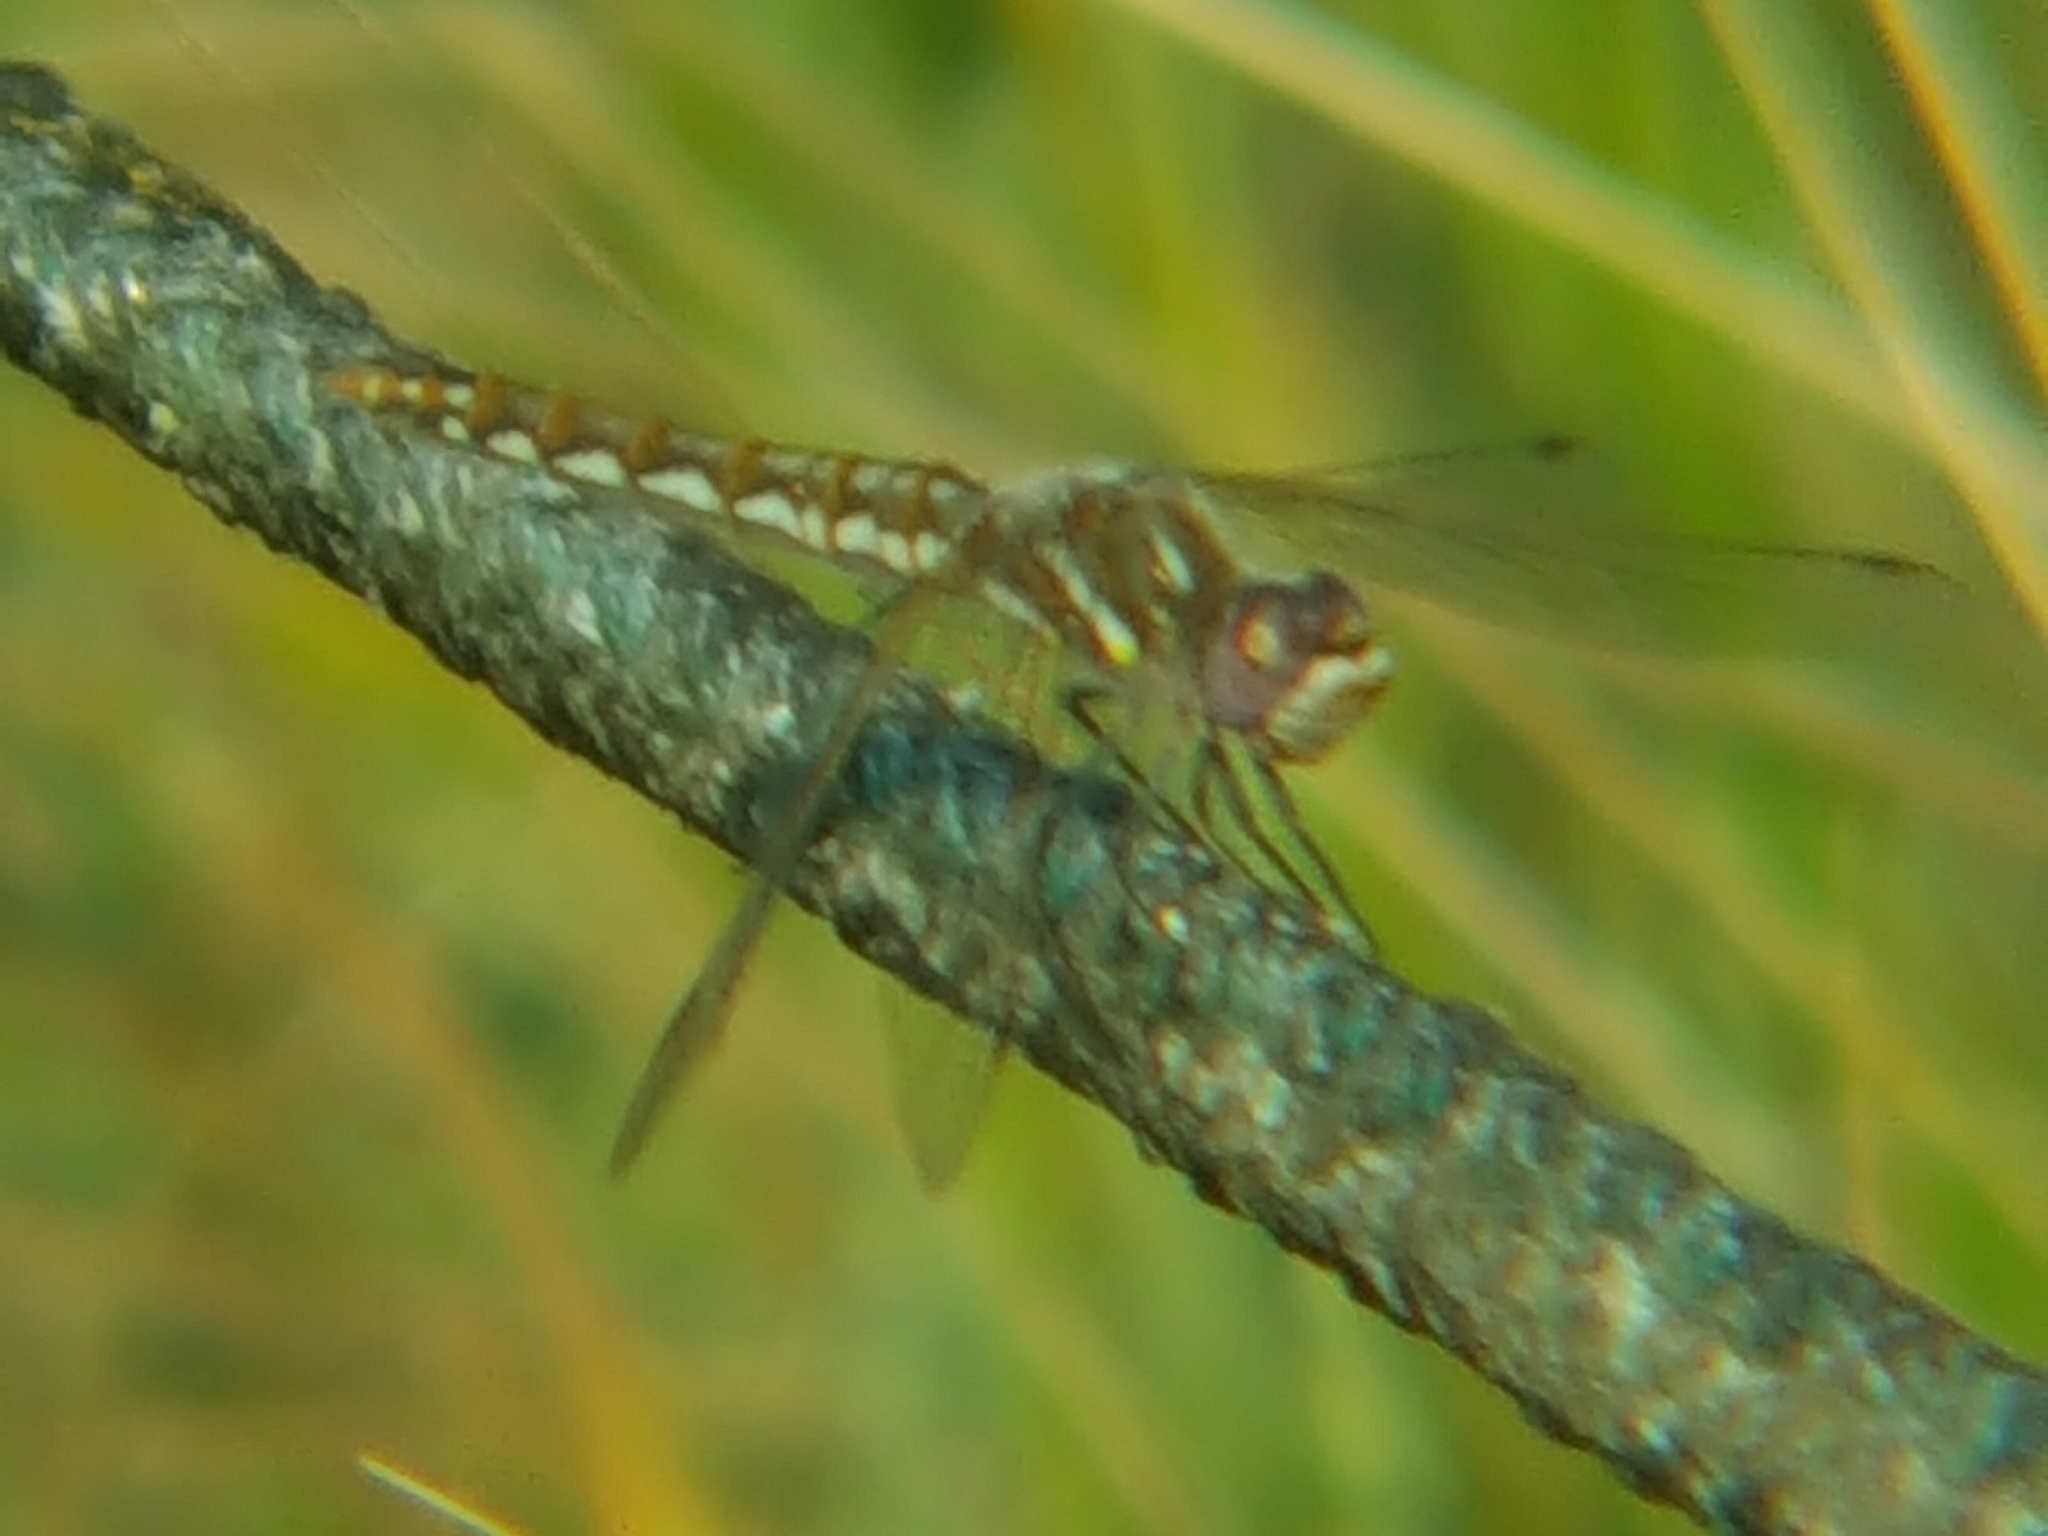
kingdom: Animalia
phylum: Arthropoda
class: Insecta
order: Odonata
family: Libellulidae
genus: Sympetrum
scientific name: Sympetrum corruptum
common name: Variegated meadowhawk
